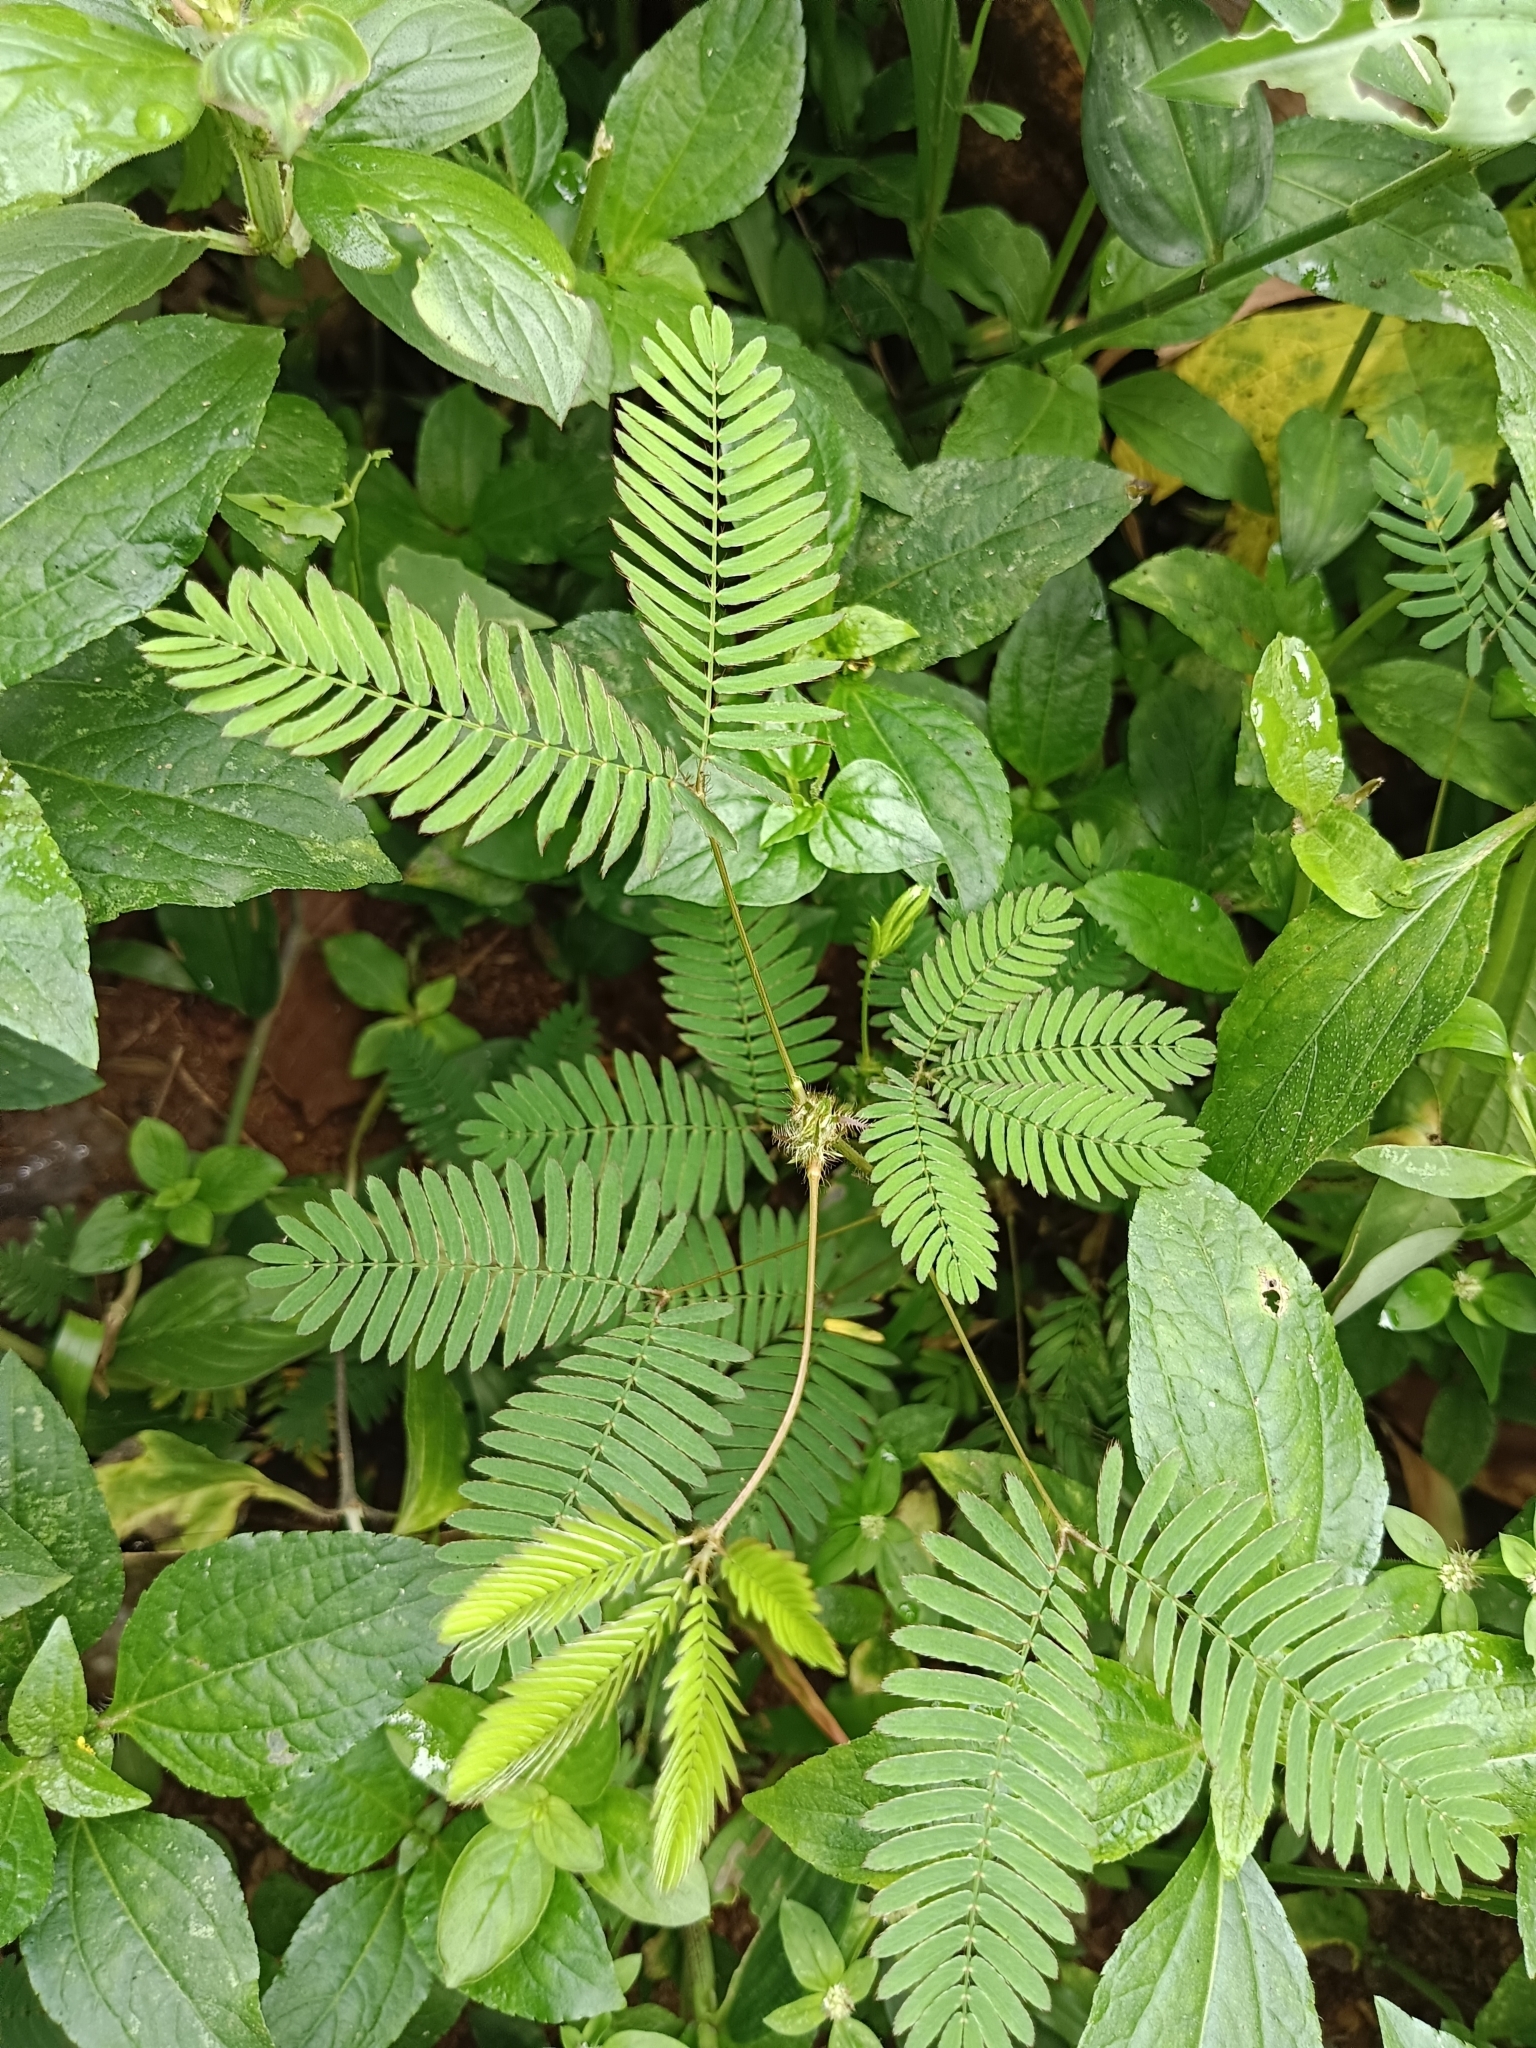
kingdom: Plantae
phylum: Tracheophyta
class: Magnoliopsida
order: Fabales
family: Fabaceae
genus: Mimosa
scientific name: Mimosa pudica
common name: Sensitive plant
